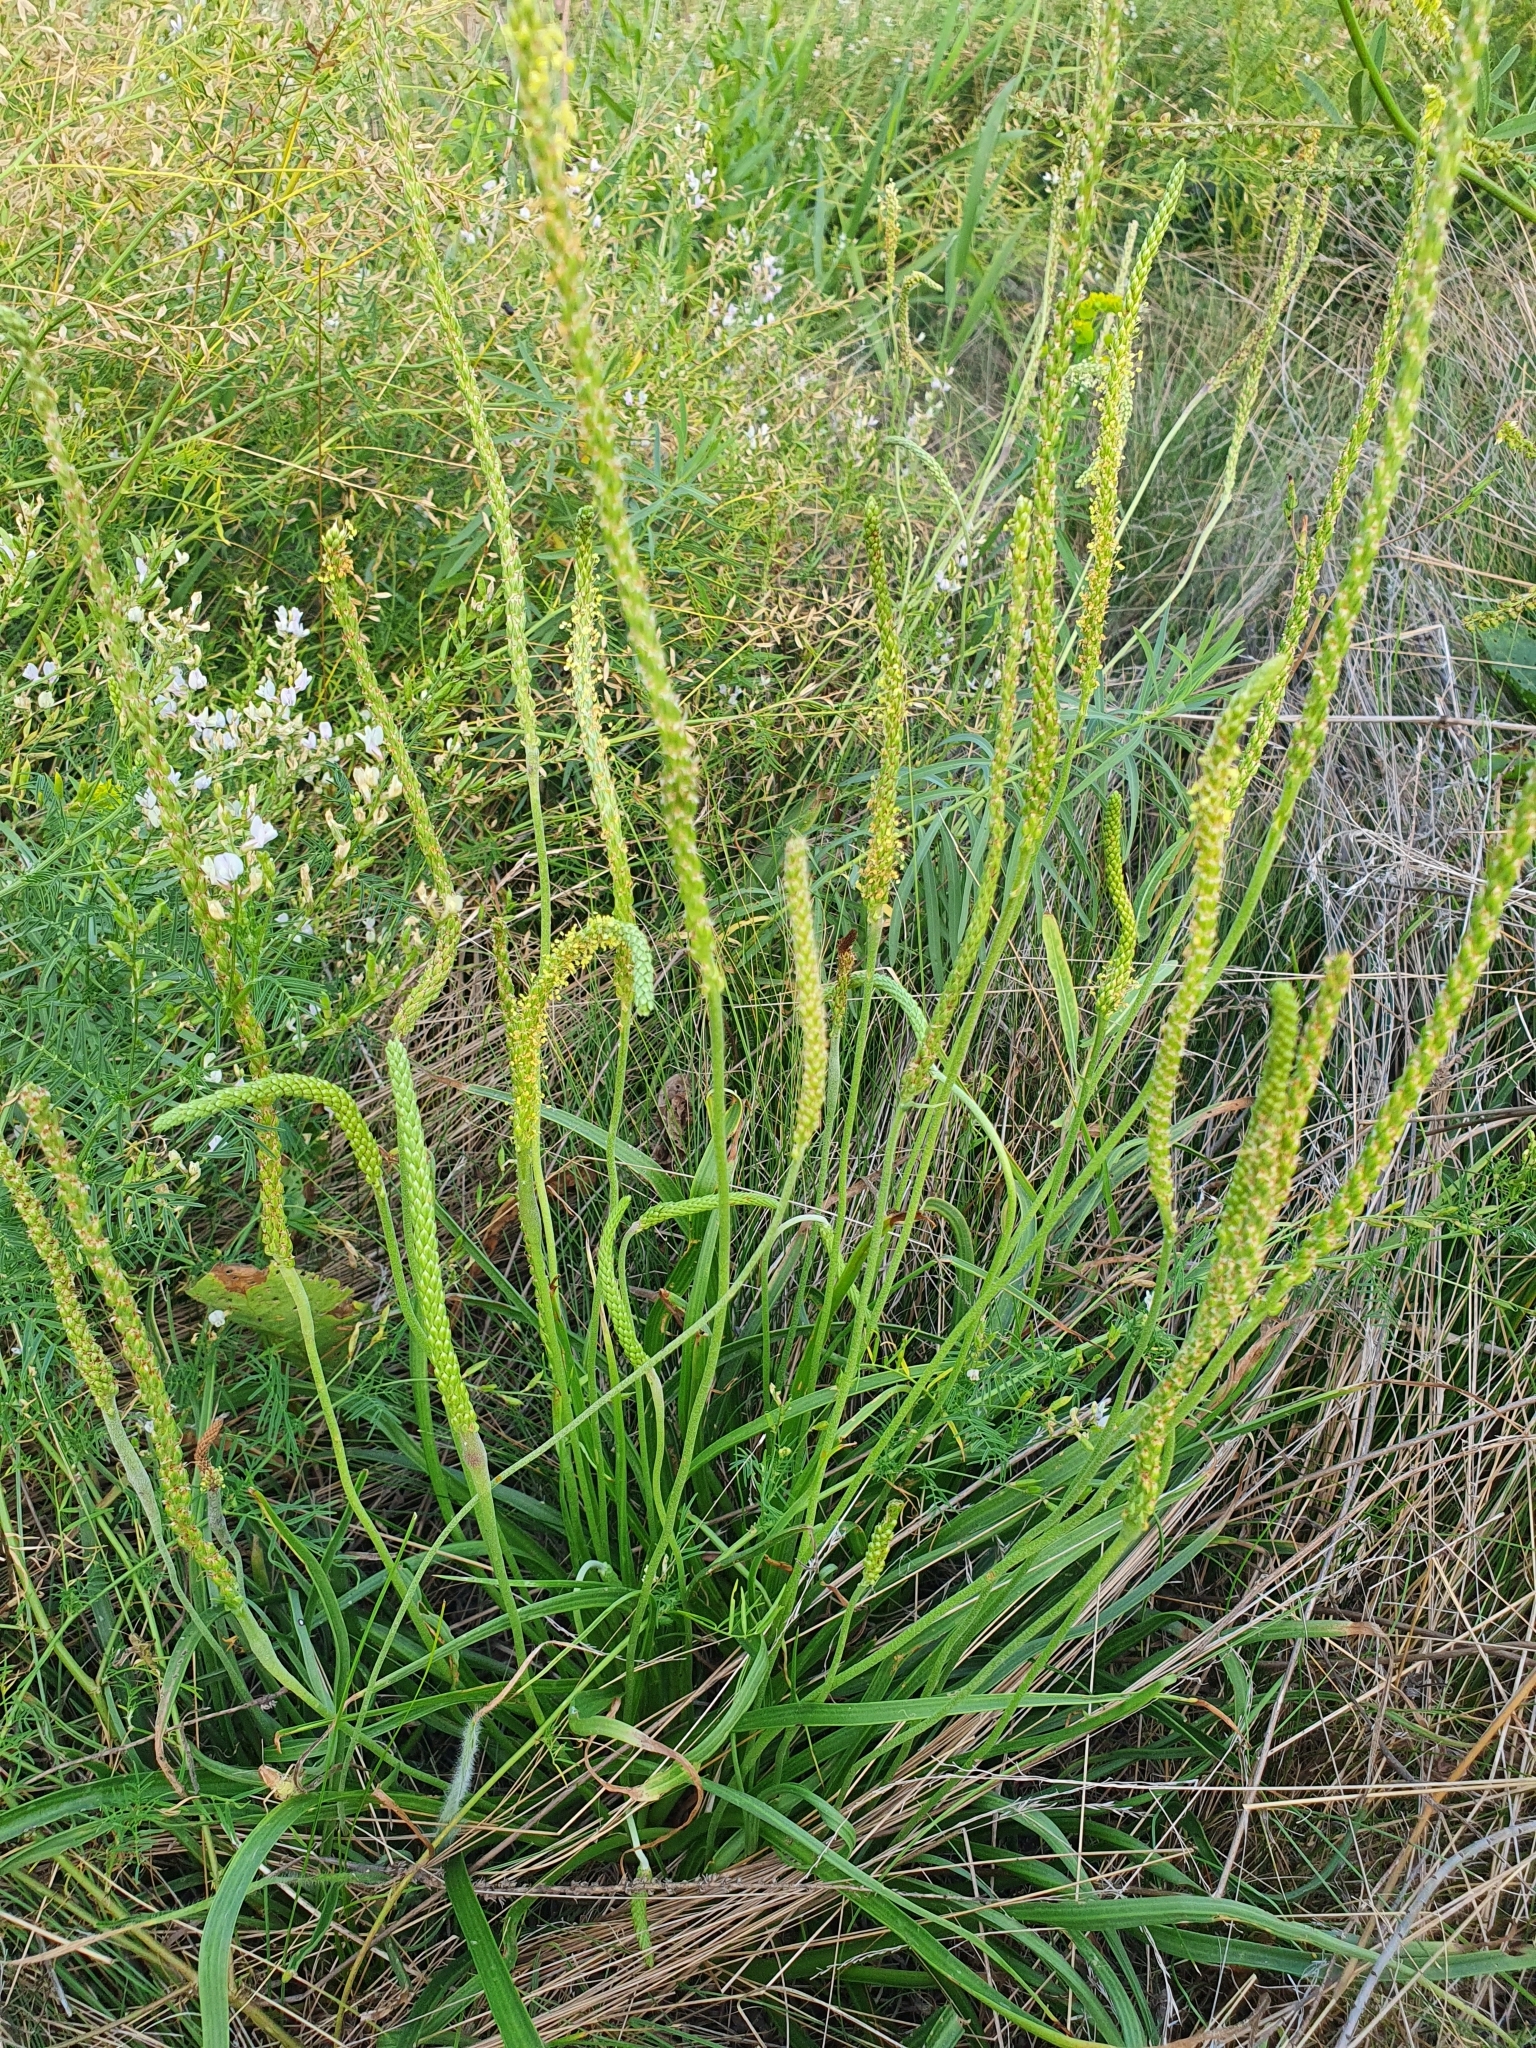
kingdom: Plantae
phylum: Tracheophyta
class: Magnoliopsida
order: Lamiales
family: Plantaginaceae
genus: Plantago
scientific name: Plantago salsa
